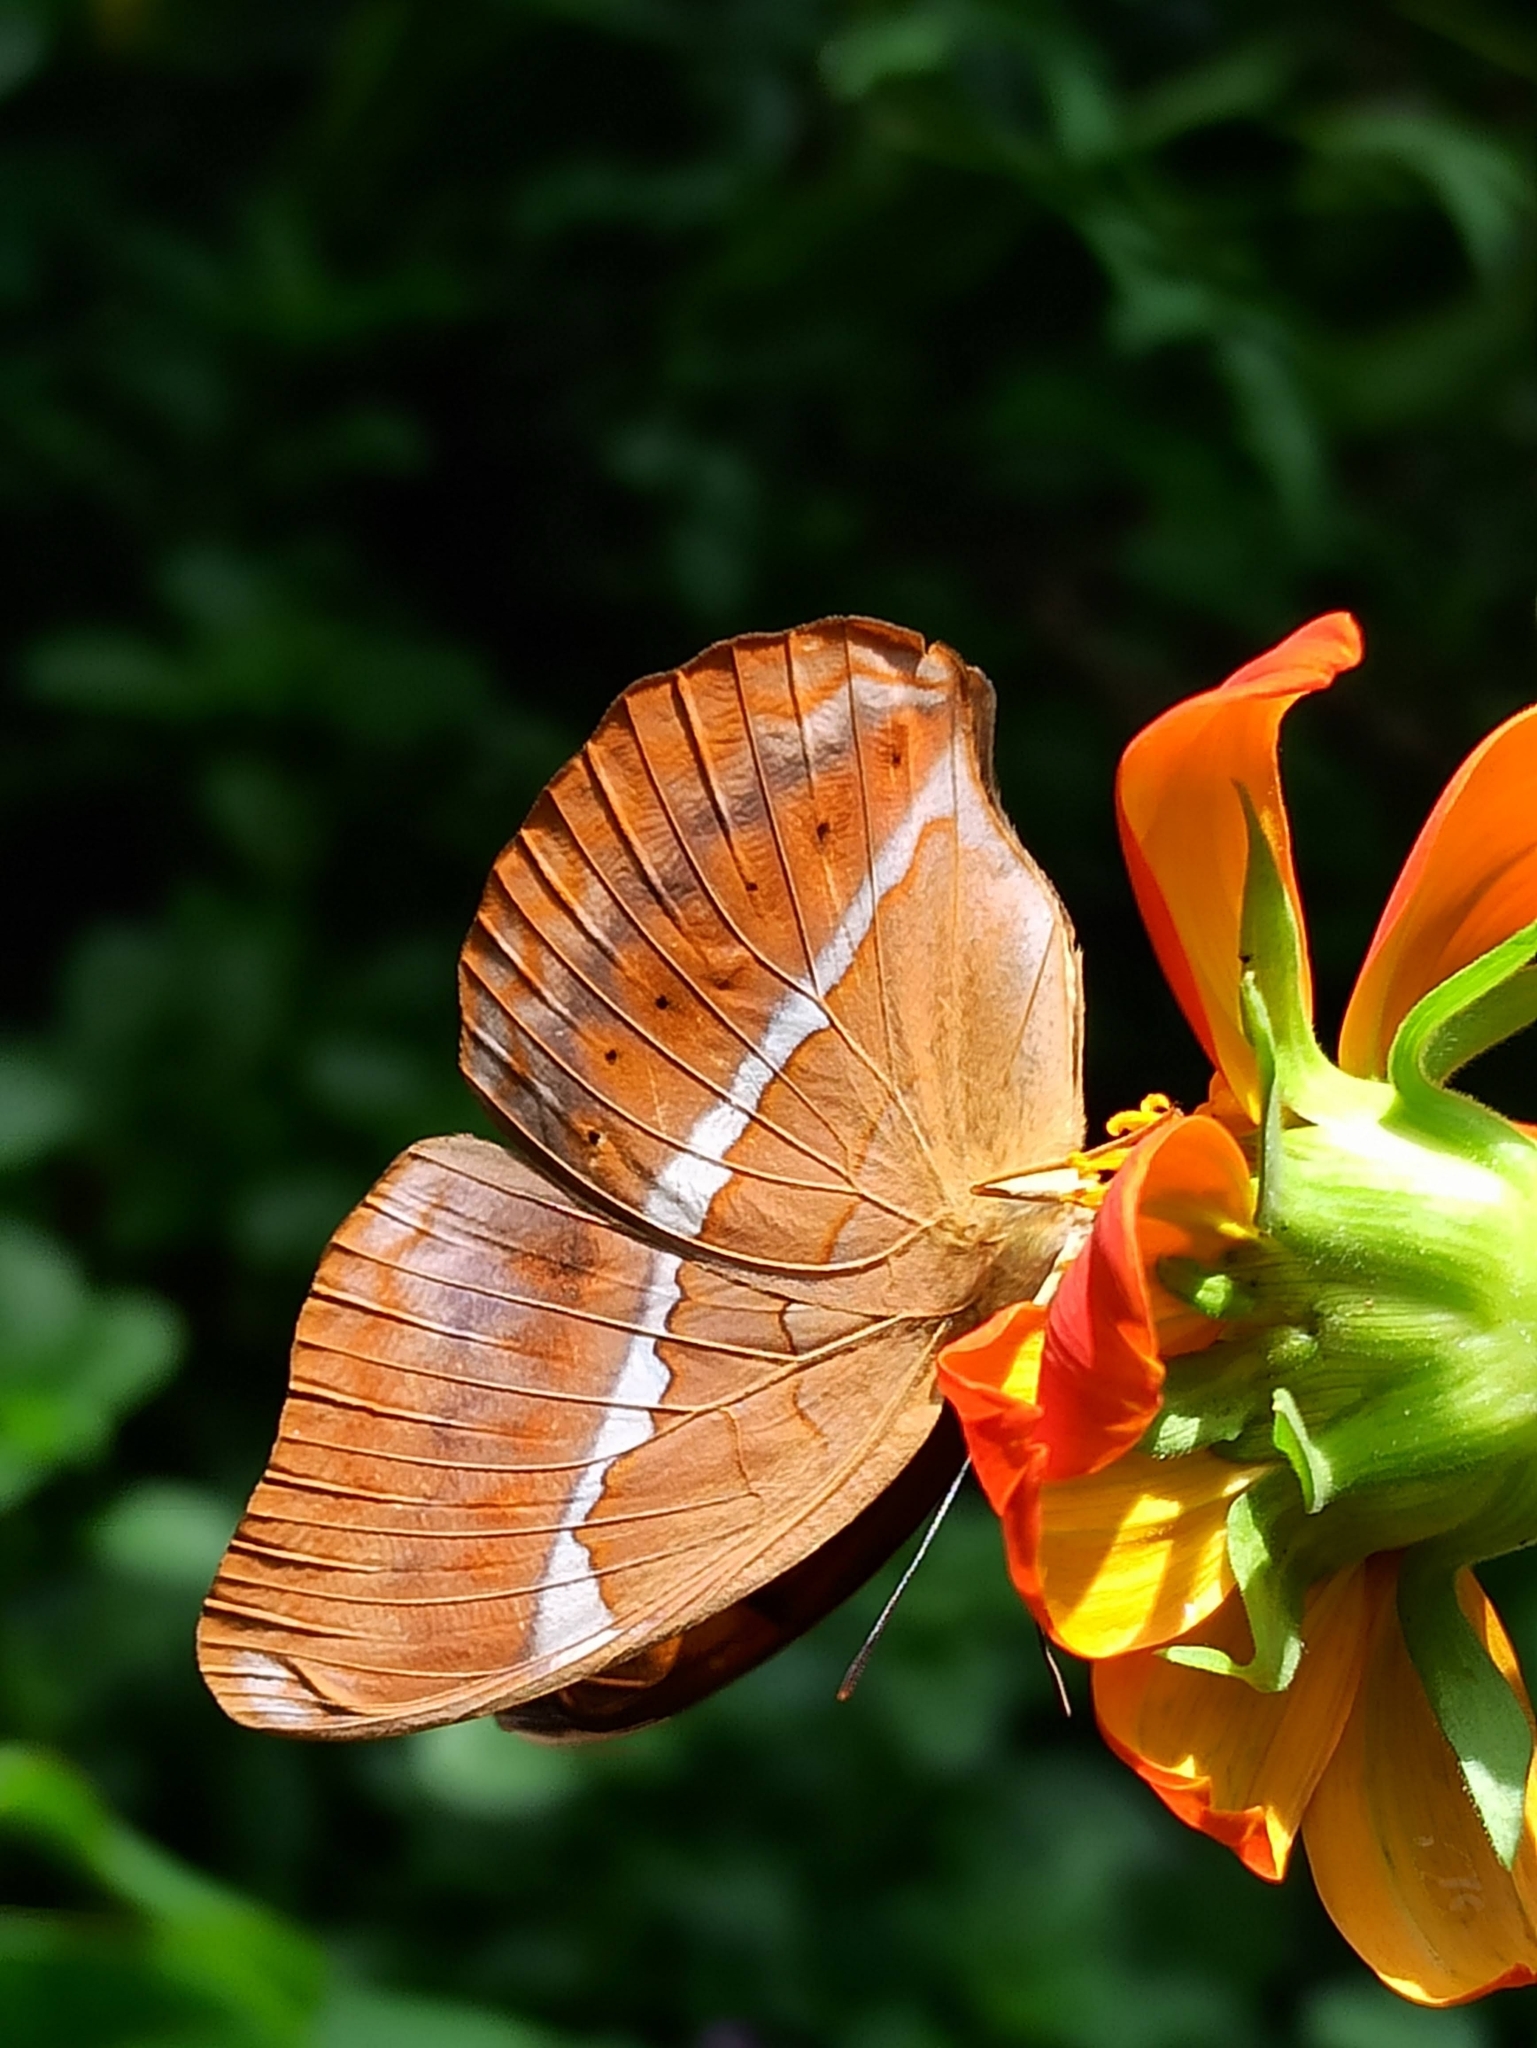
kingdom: Animalia
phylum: Arthropoda
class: Insecta
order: Lepidoptera
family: Nymphalidae
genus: Cirrochroa
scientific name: Cirrochroa thais
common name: Tamil yeoman
